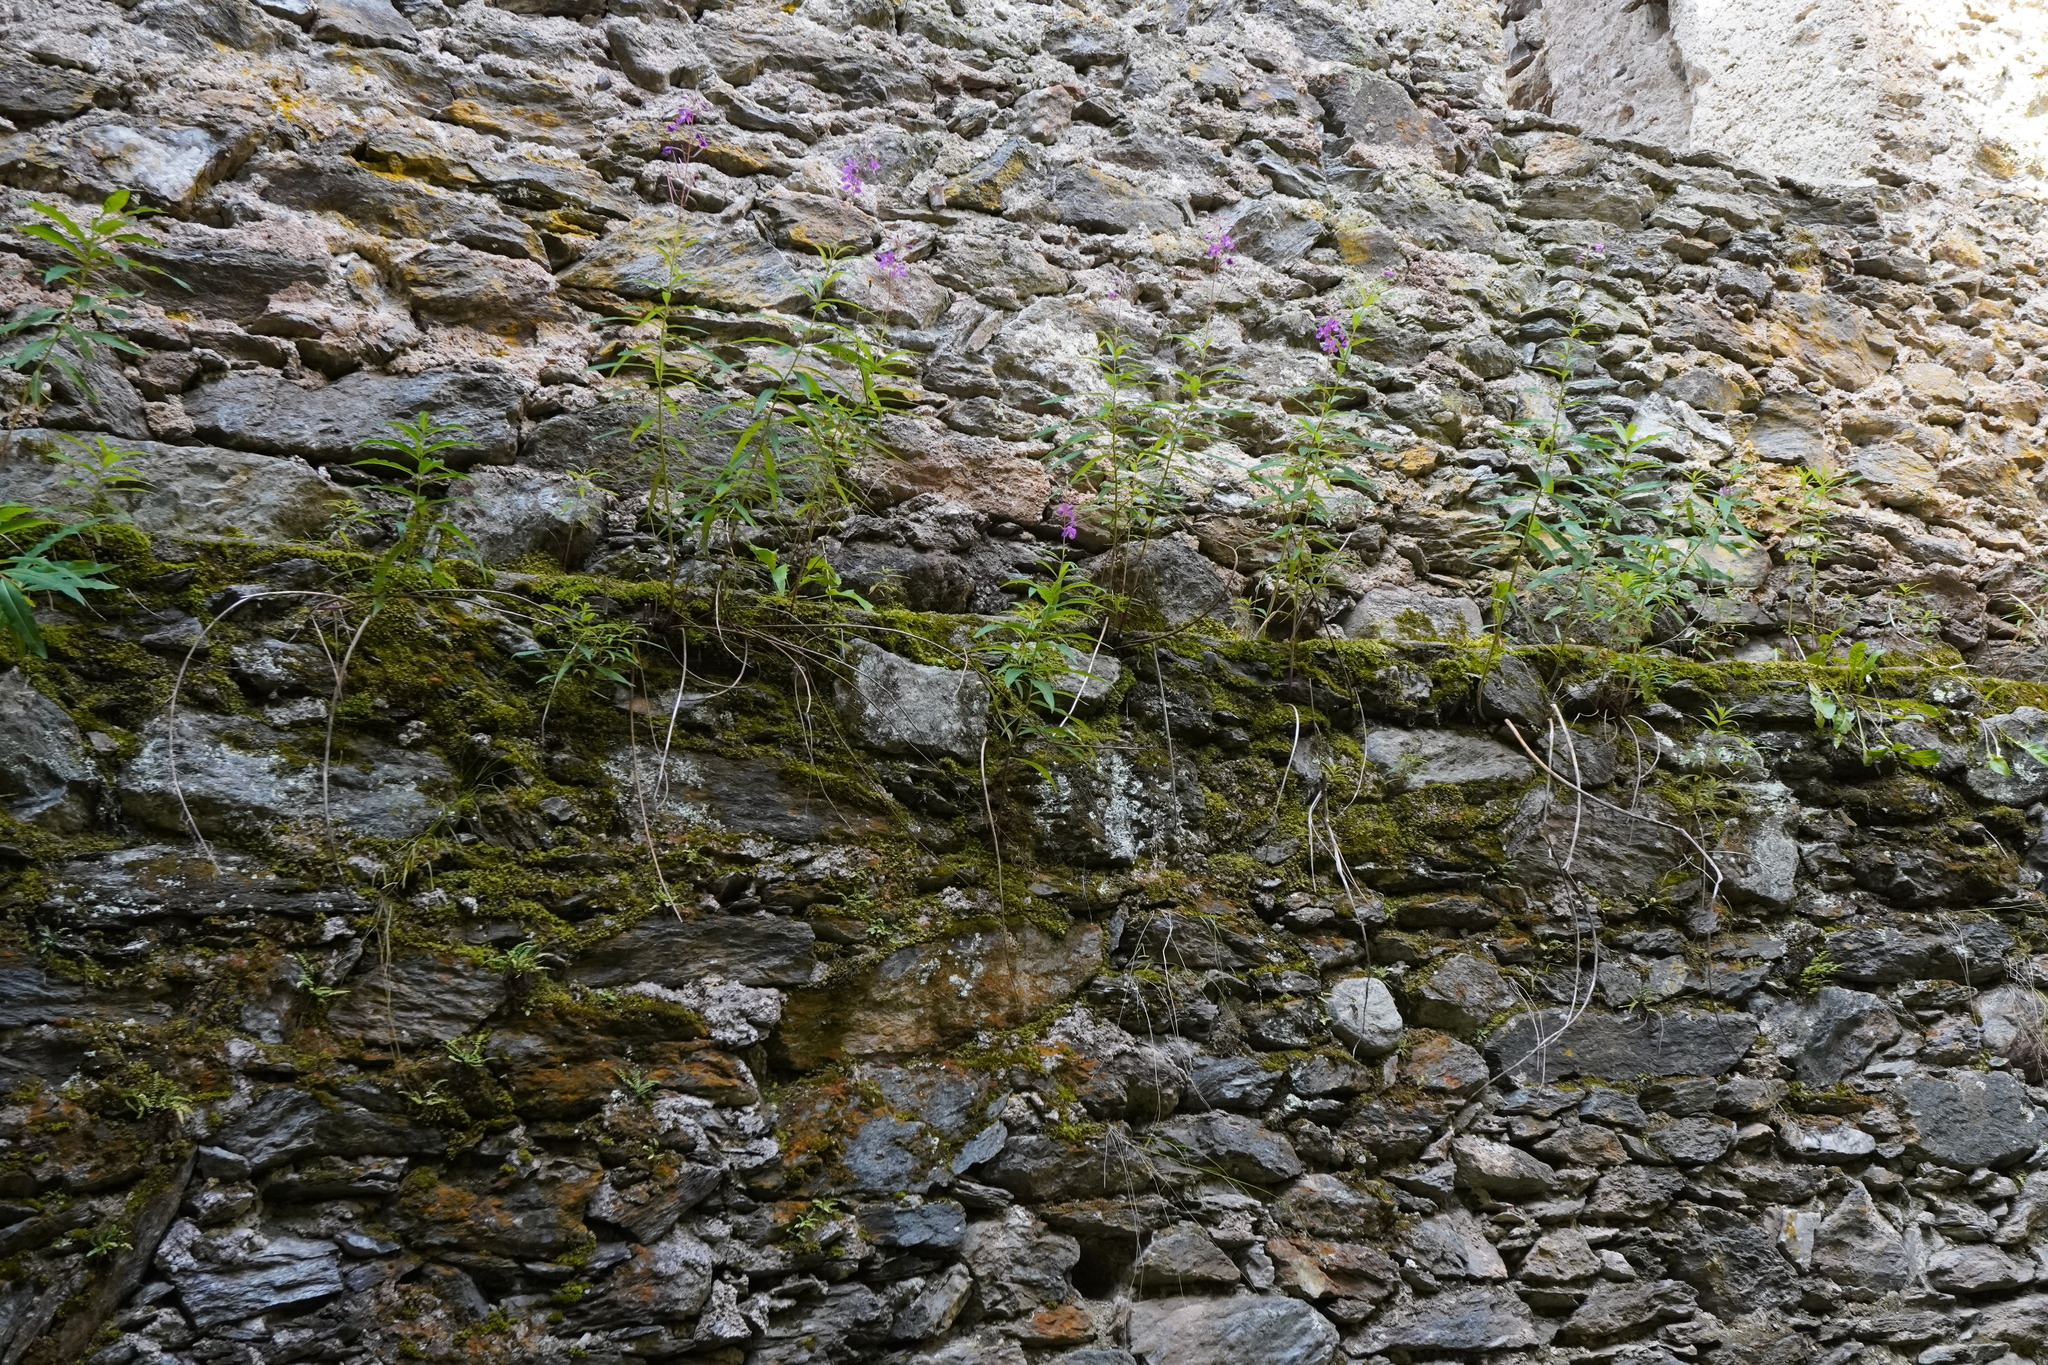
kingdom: Plantae
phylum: Tracheophyta
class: Magnoliopsida
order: Myrtales
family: Onagraceae
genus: Chamaenerion
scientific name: Chamaenerion angustifolium
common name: Fireweed
